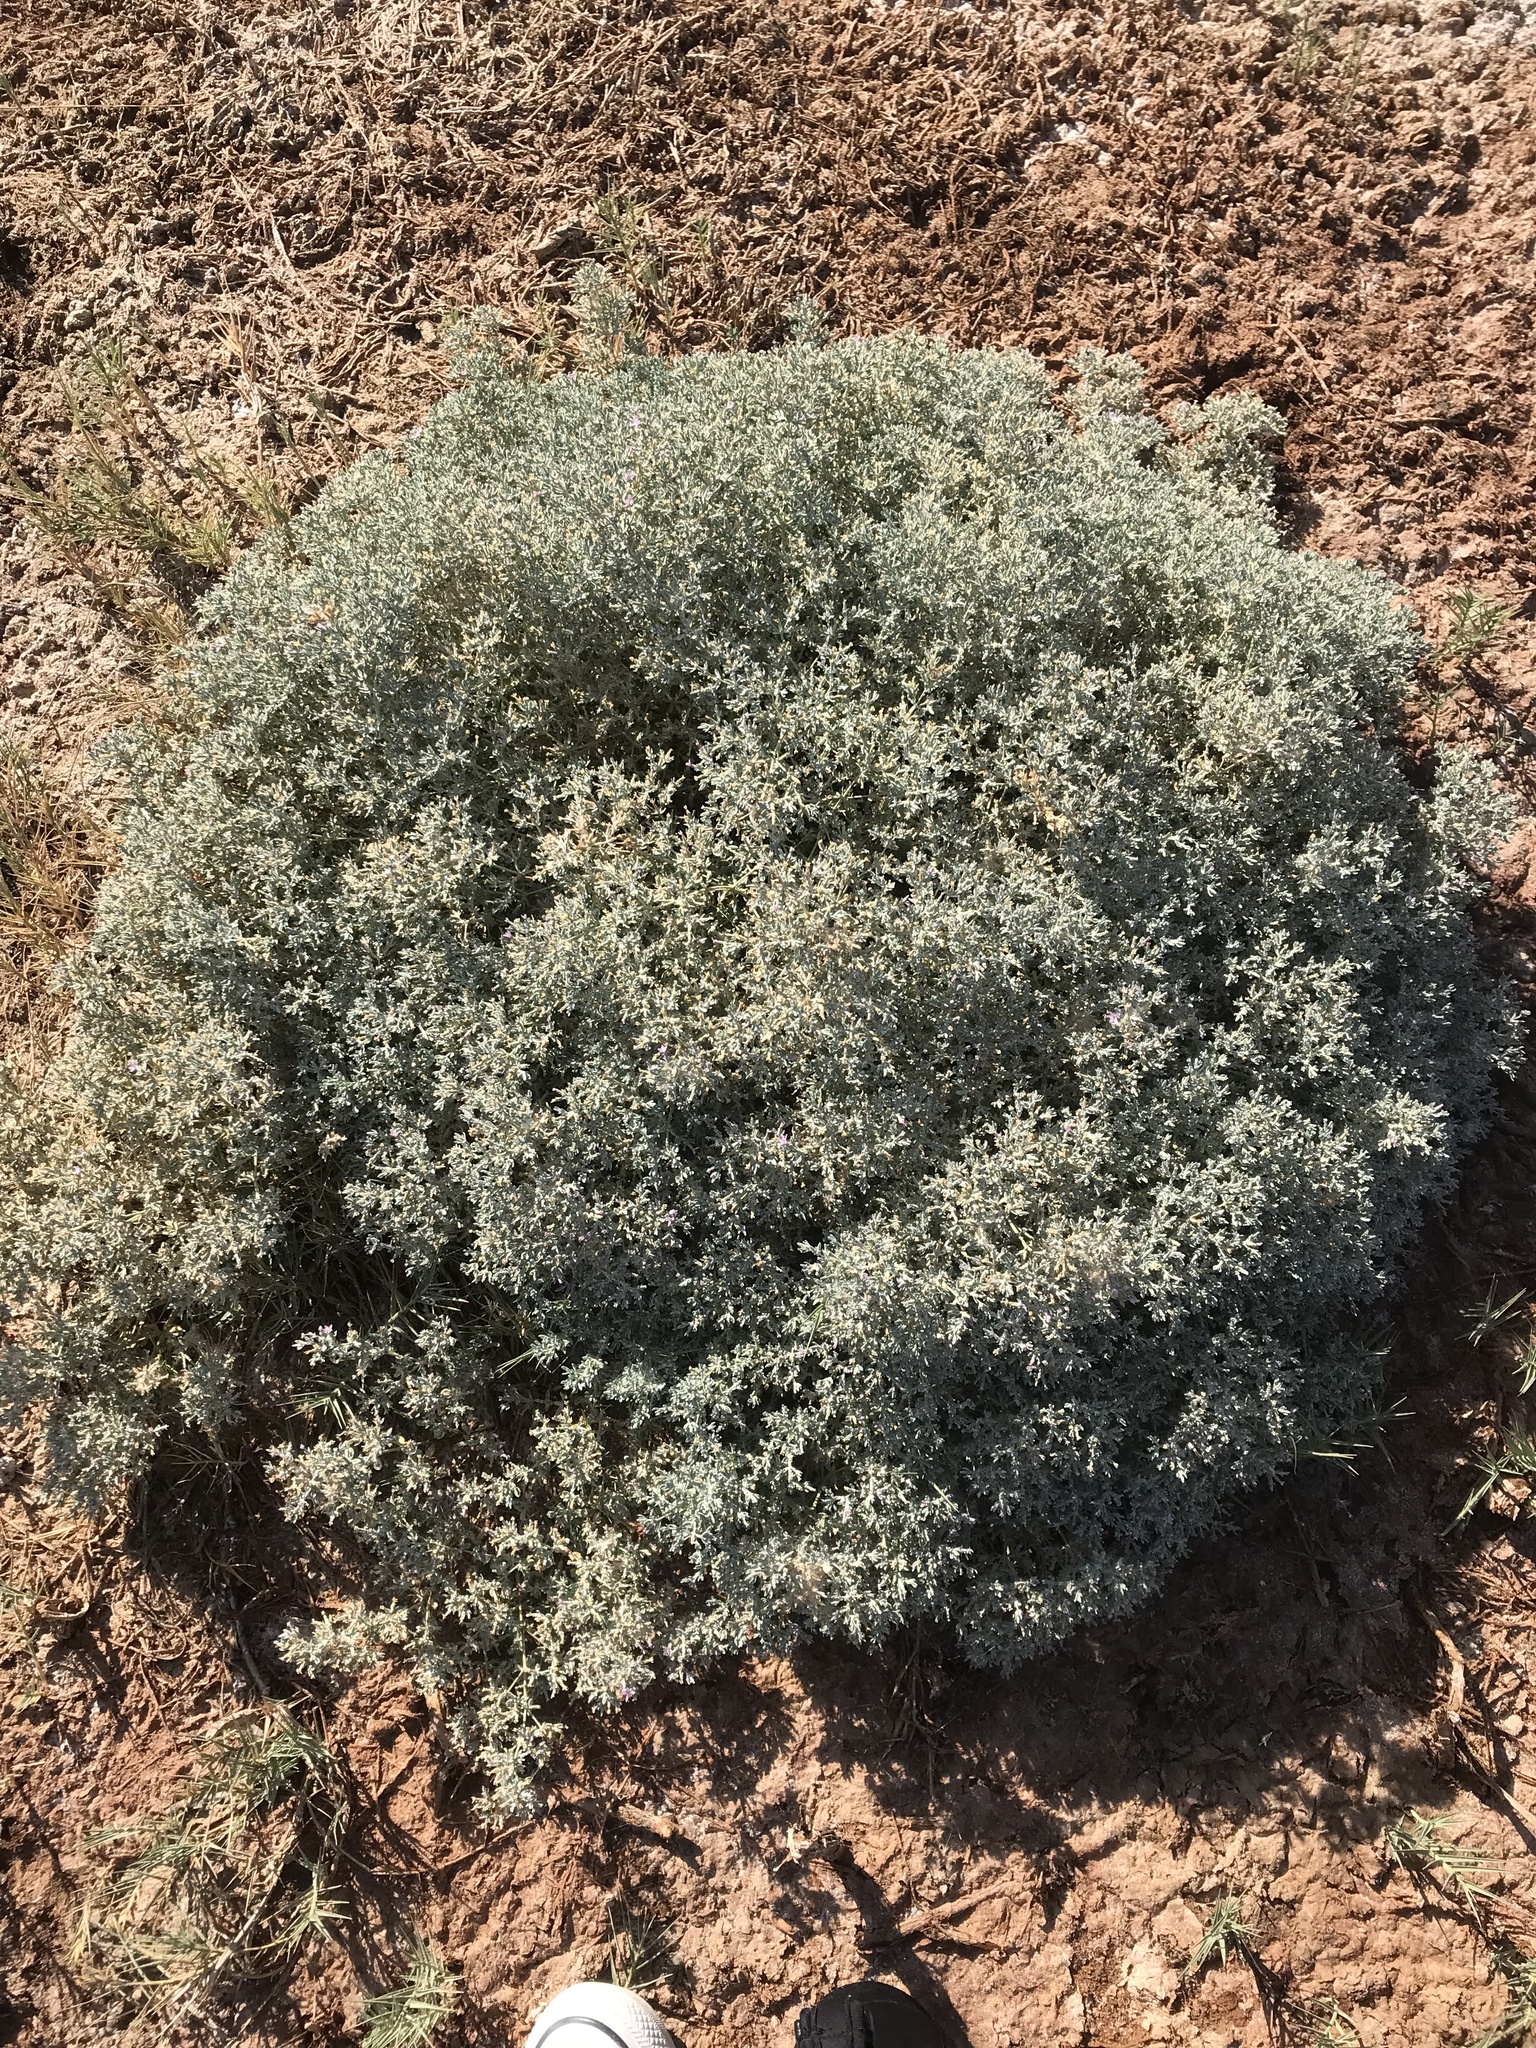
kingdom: Plantae
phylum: Tracheophyta
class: Magnoliopsida
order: Caryophyllales
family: Frankeniaceae
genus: Frankenia
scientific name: Frankenia salina
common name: Alkali seaheath
